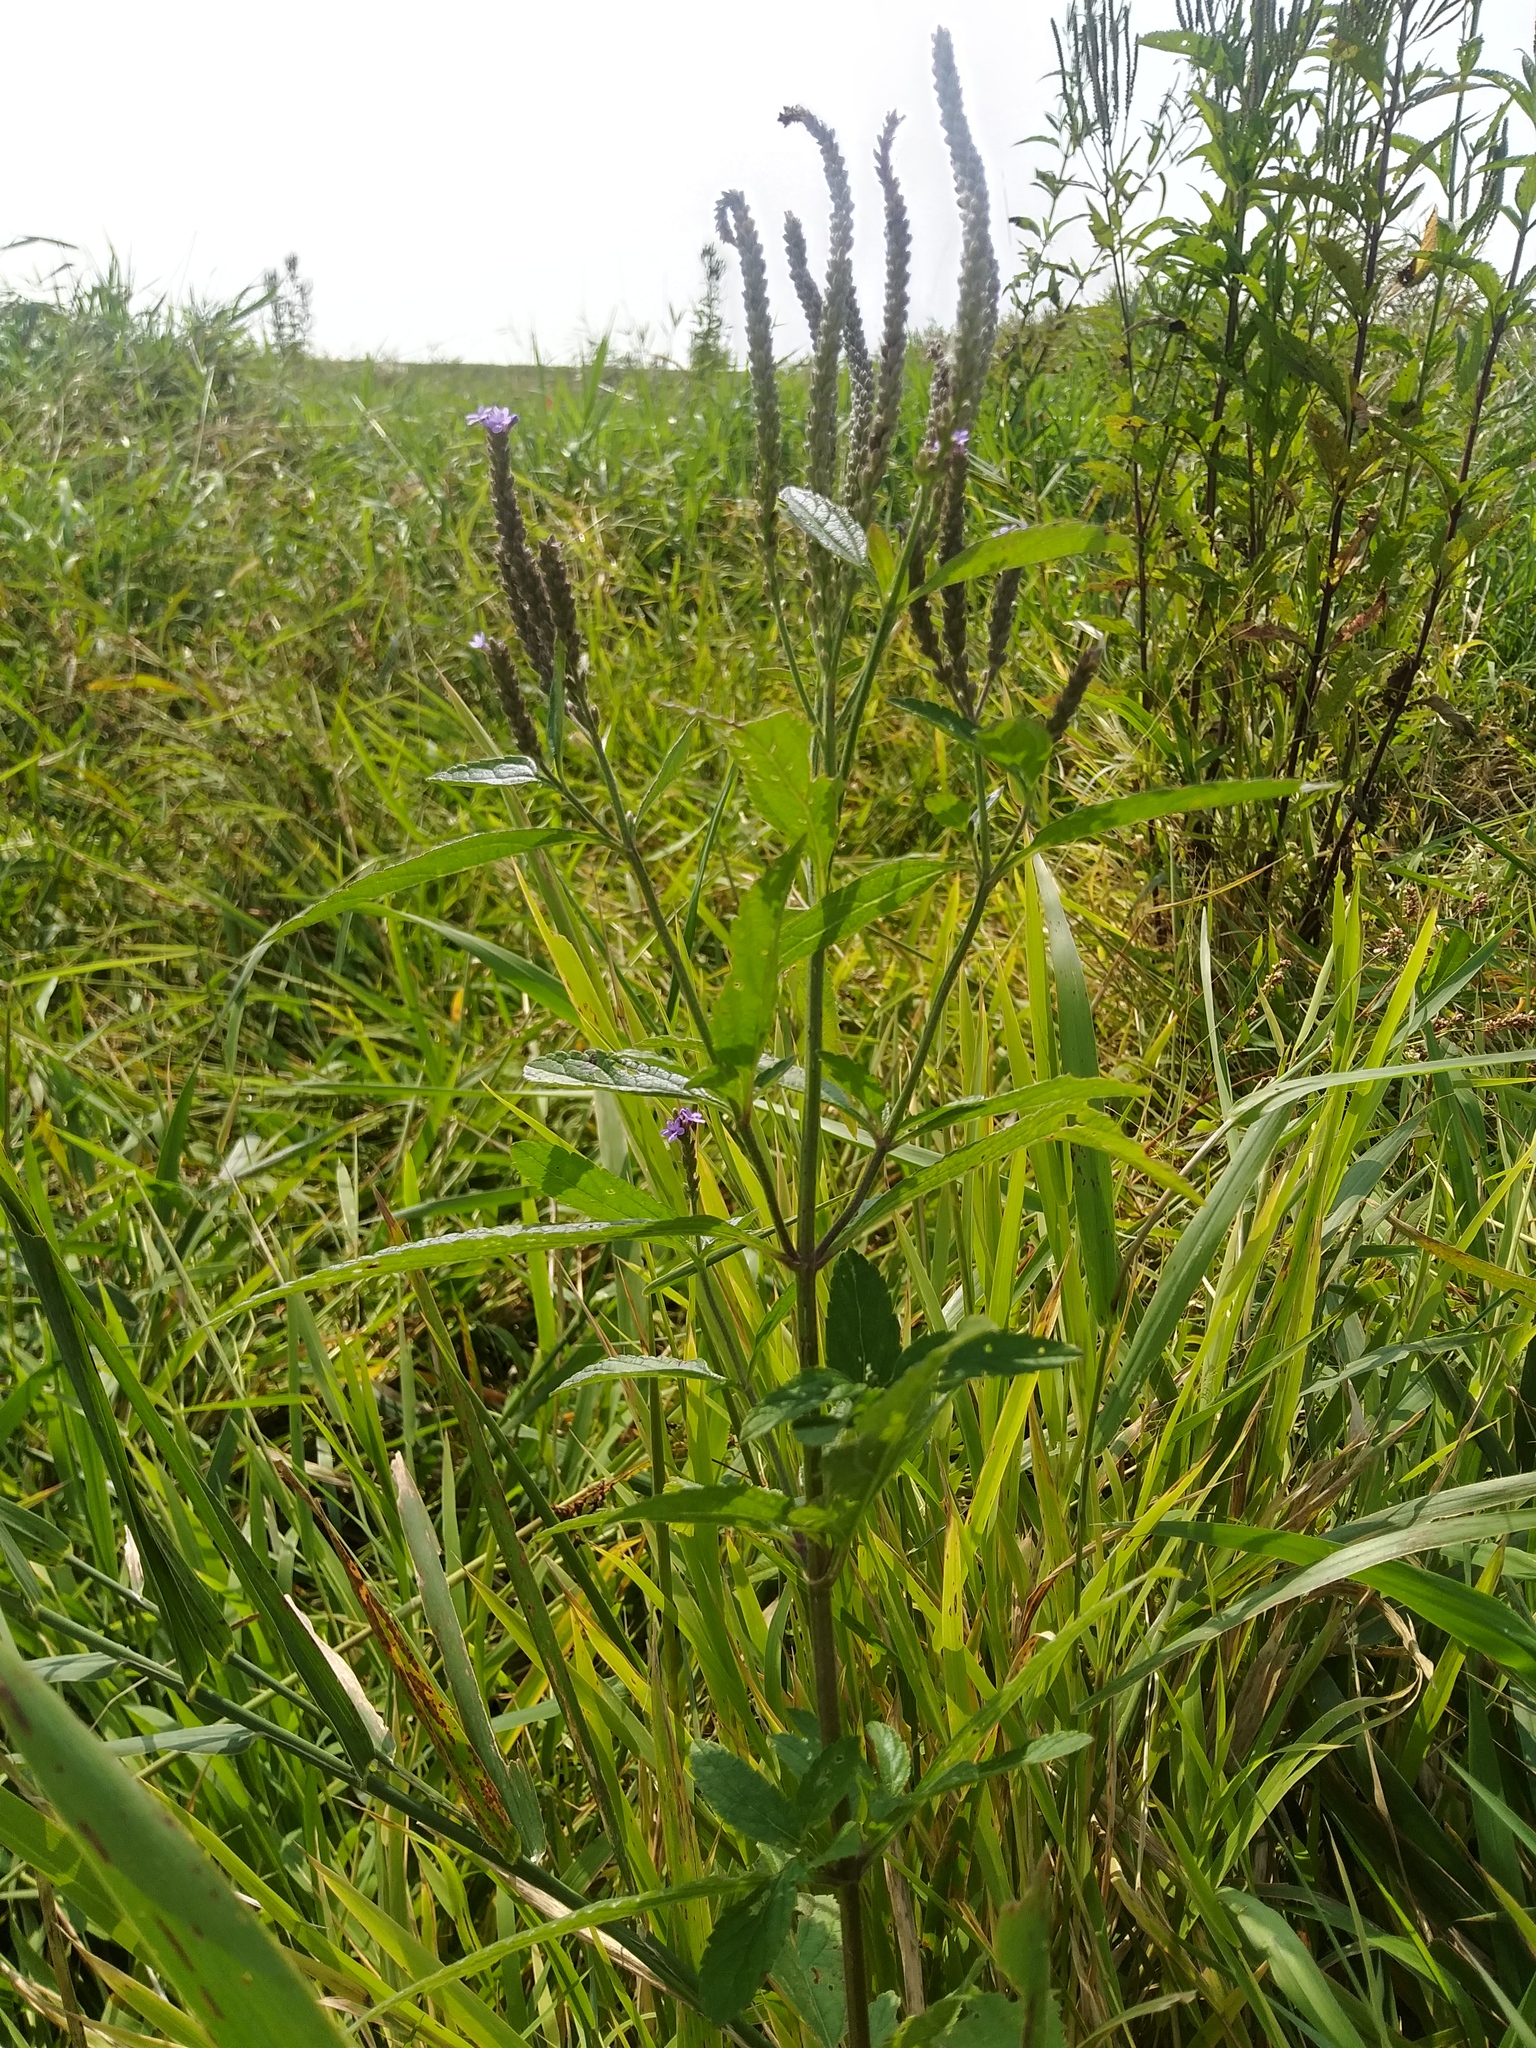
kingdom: Plantae
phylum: Tracheophyta
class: Magnoliopsida
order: Lamiales
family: Verbenaceae
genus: Verbena
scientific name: Verbena hastata
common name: American blue vervain
